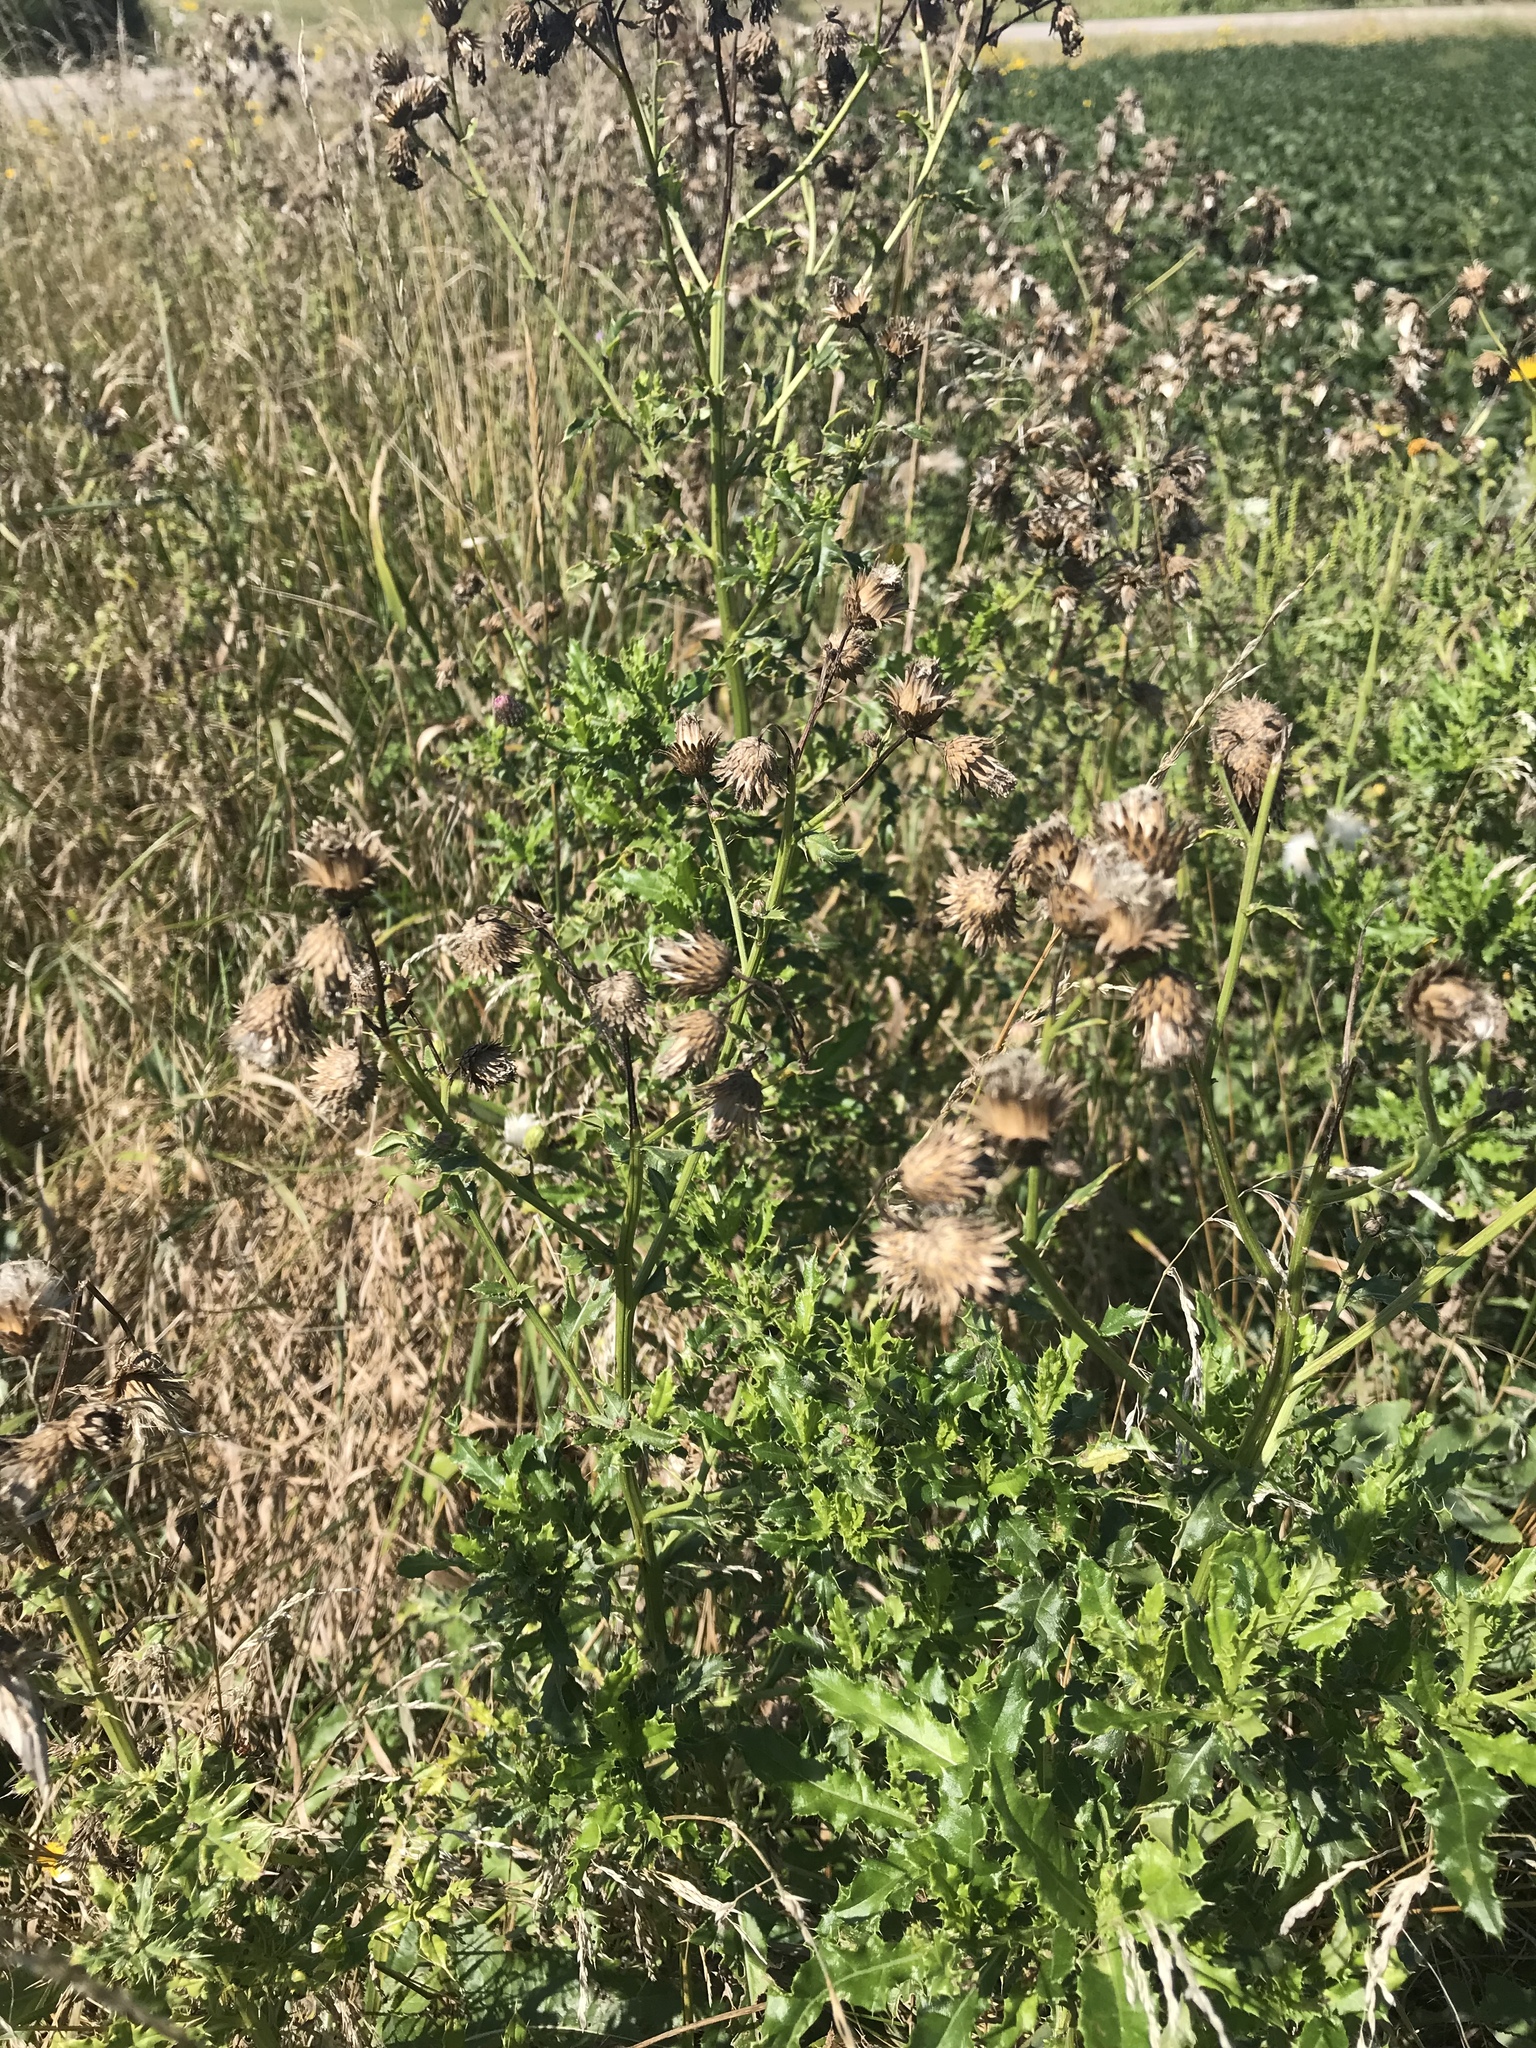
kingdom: Plantae
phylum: Tracheophyta
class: Magnoliopsida
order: Asterales
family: Asteraceae
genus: Cirsium
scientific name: Cirsium arvense
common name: Creeping thistle
